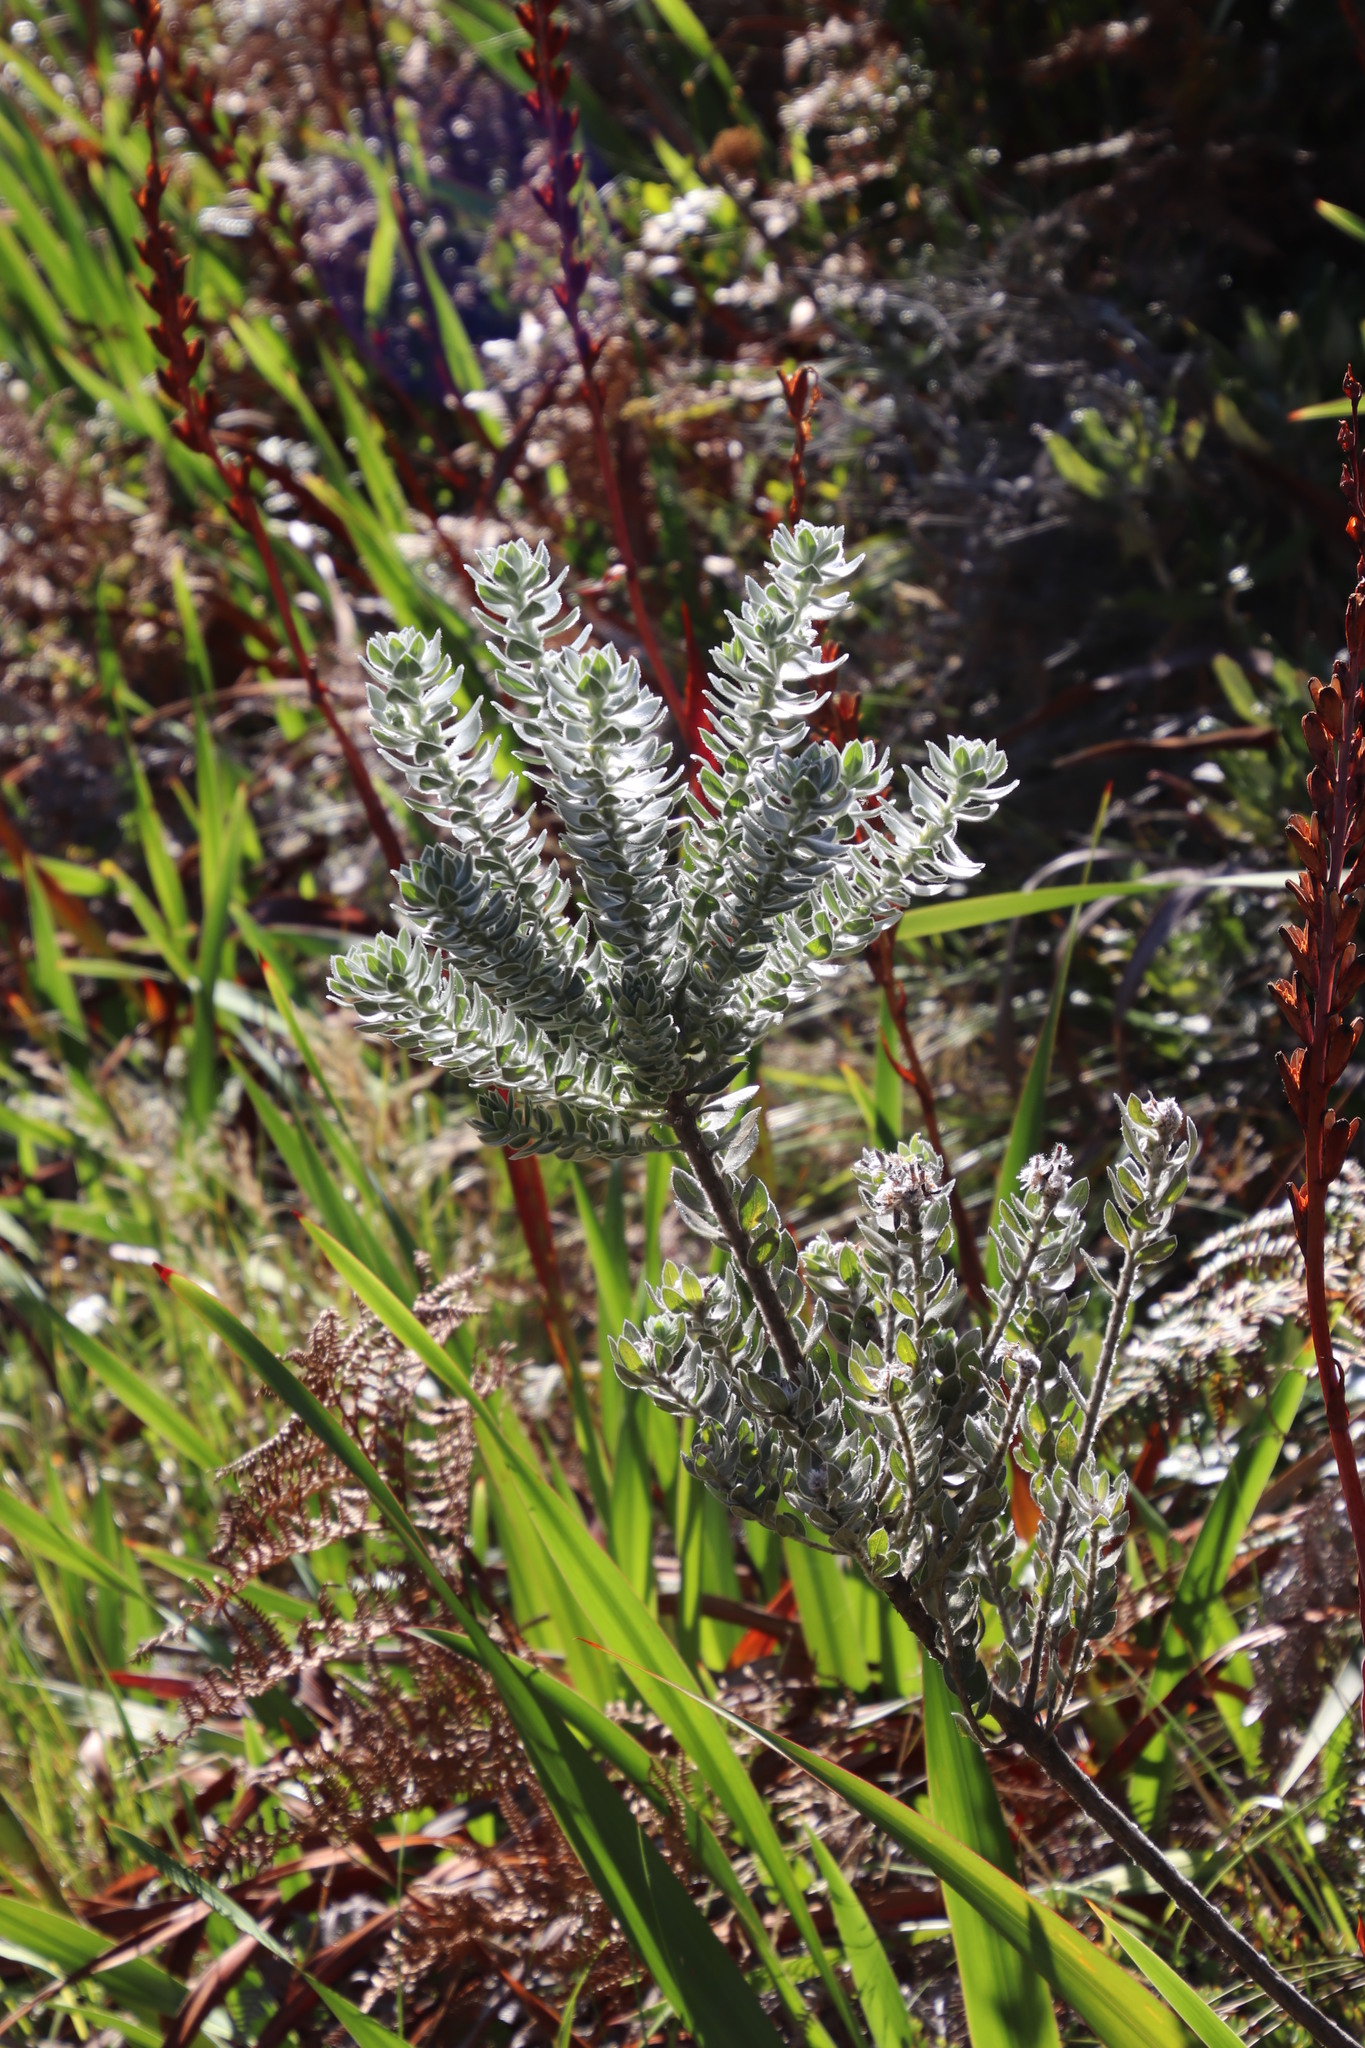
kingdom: Plantae
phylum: Tracheophyta
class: Magnoliopsida
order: Fabales
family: Fabaceae
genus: Xiphotheca
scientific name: Xiphotheca fruticosa
